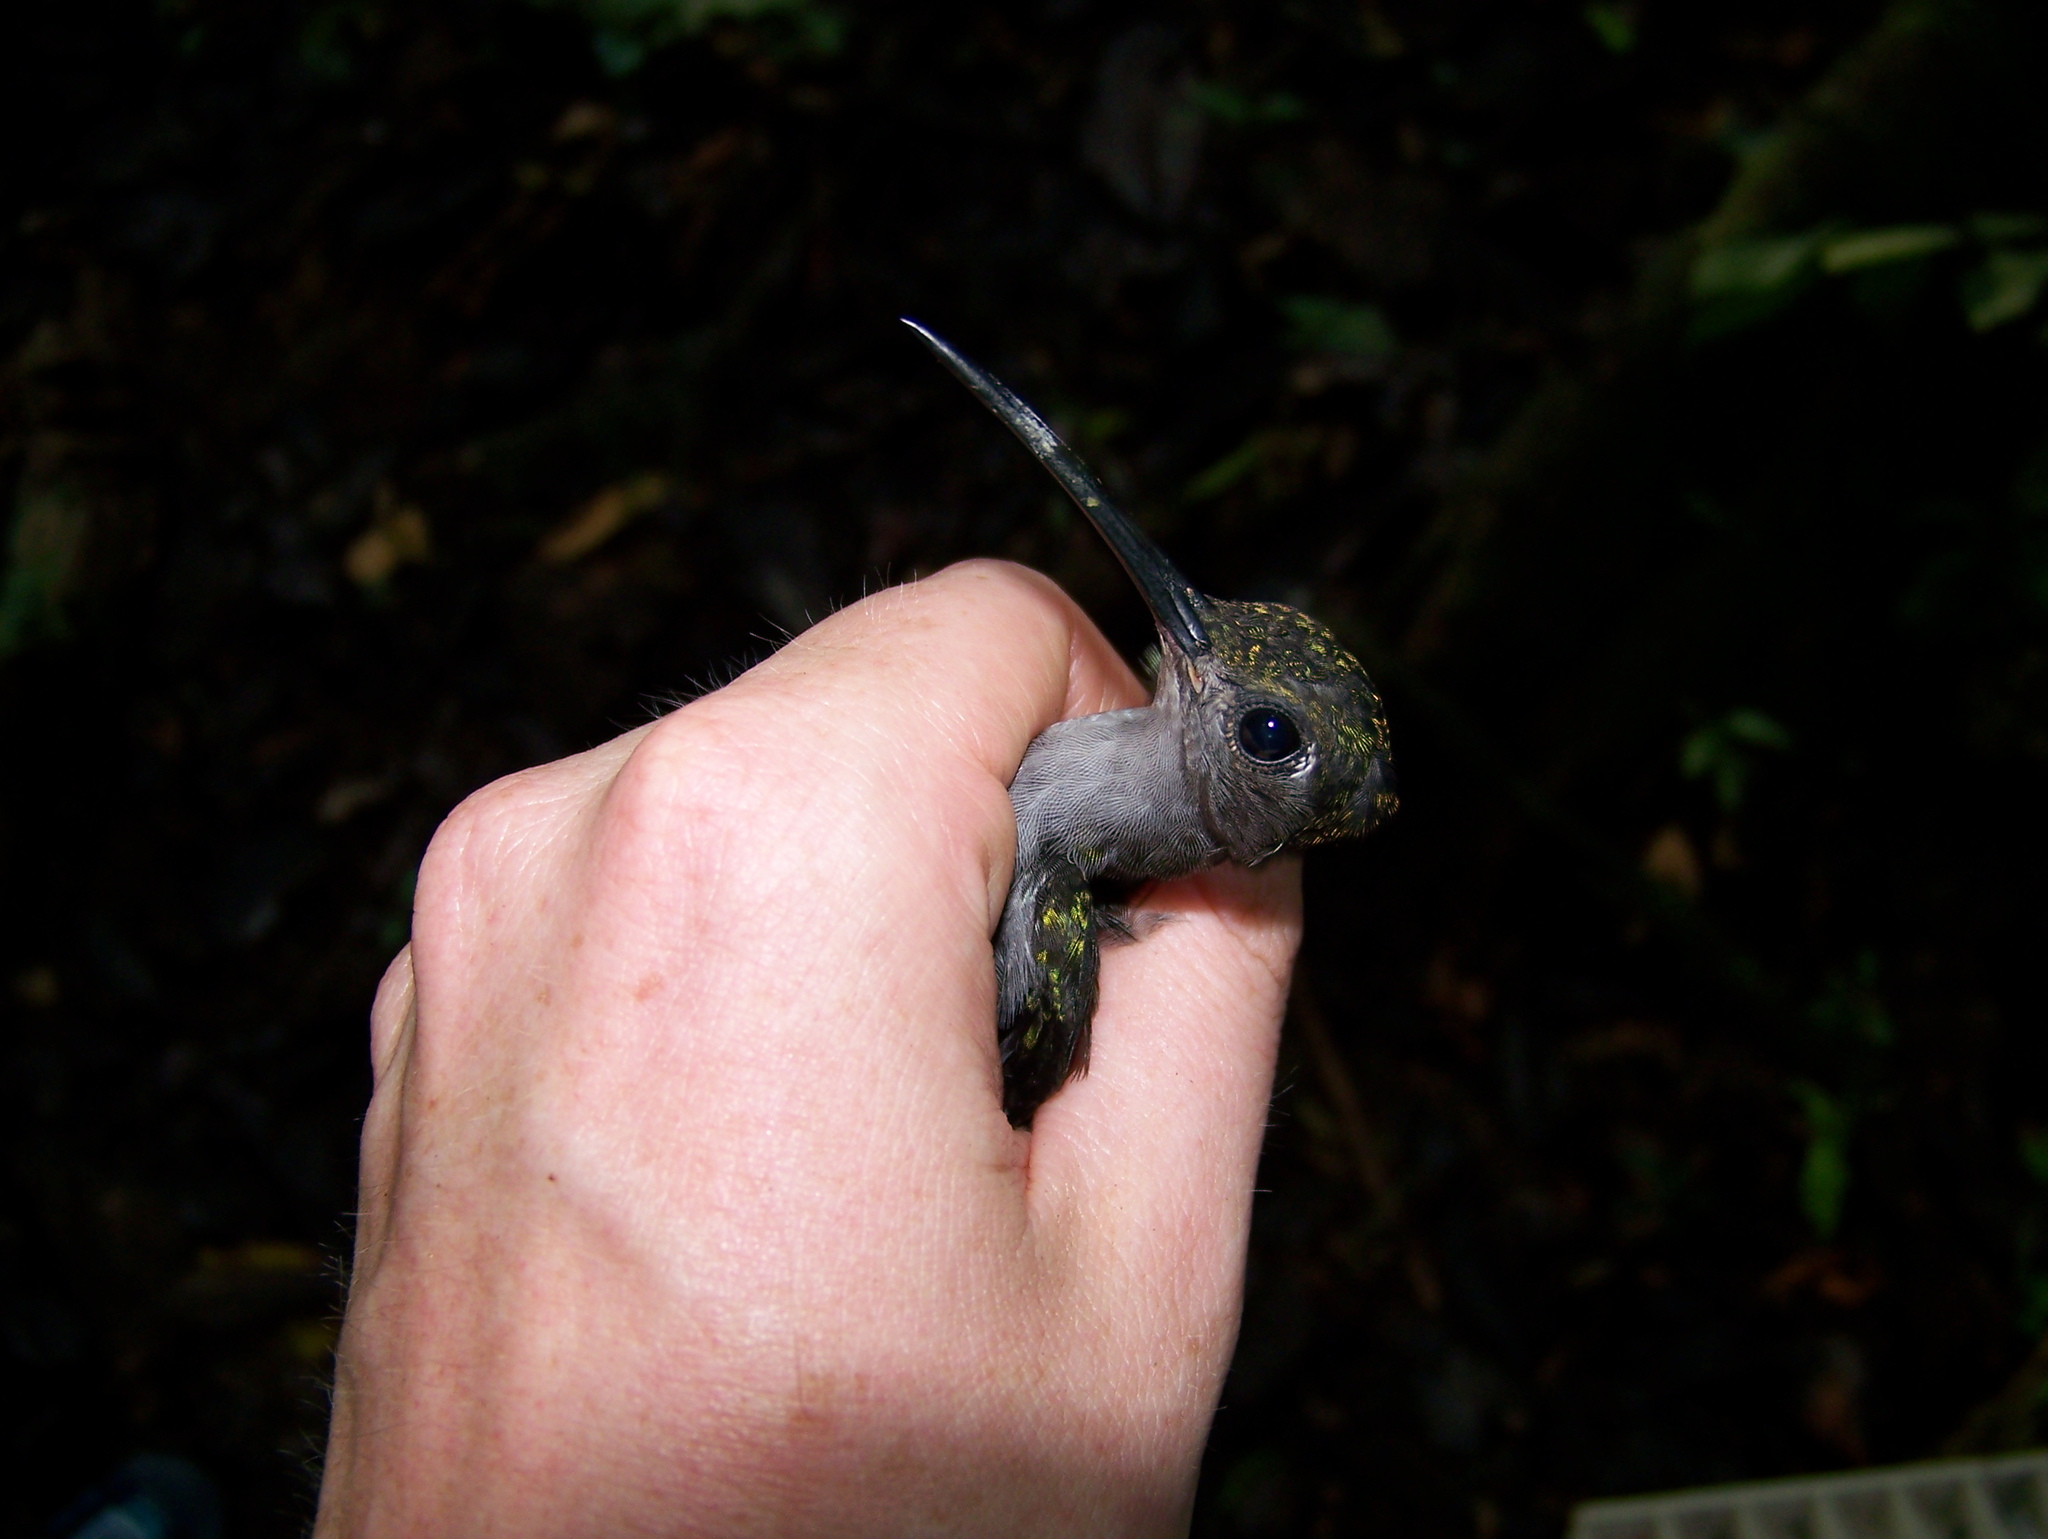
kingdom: Animalia
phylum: Chordata
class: Aves
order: Apodiformes
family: Trochilidae
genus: Campylopterus
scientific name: Campylopterus largipennis
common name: Gray-breasted sabrewing
